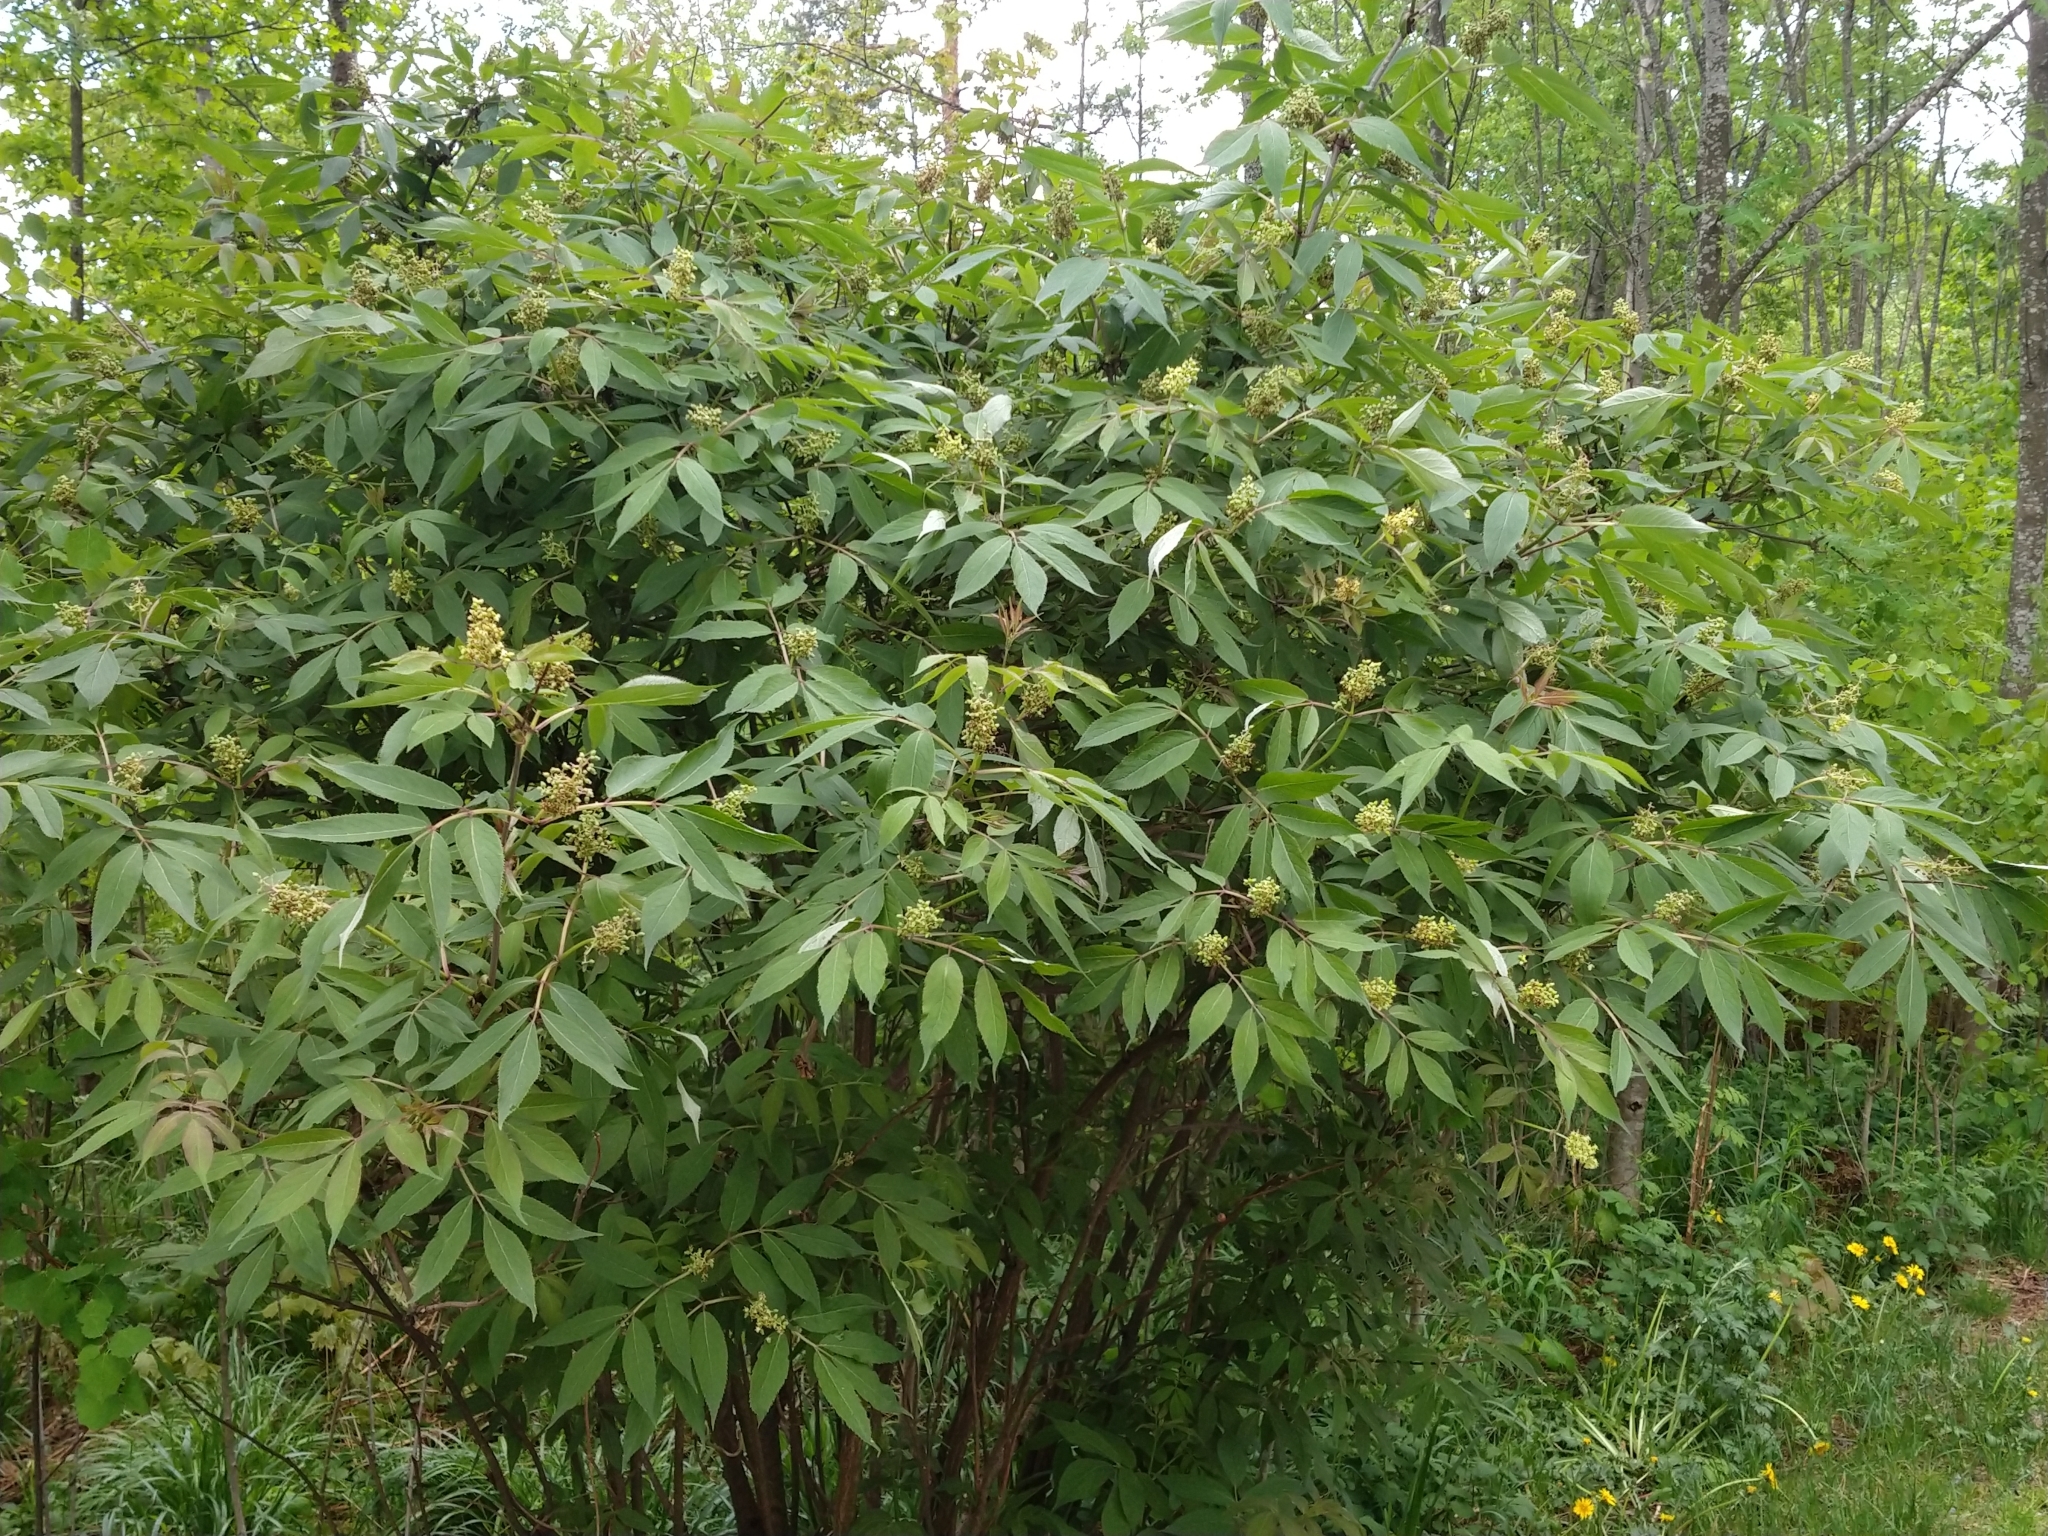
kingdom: Plantae
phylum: Tracheophyta
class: Magnoliopsida
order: Dipsacales
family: Viburnaceae
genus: Sambucus
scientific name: Sambucus racemosa
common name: Red-berried elder
